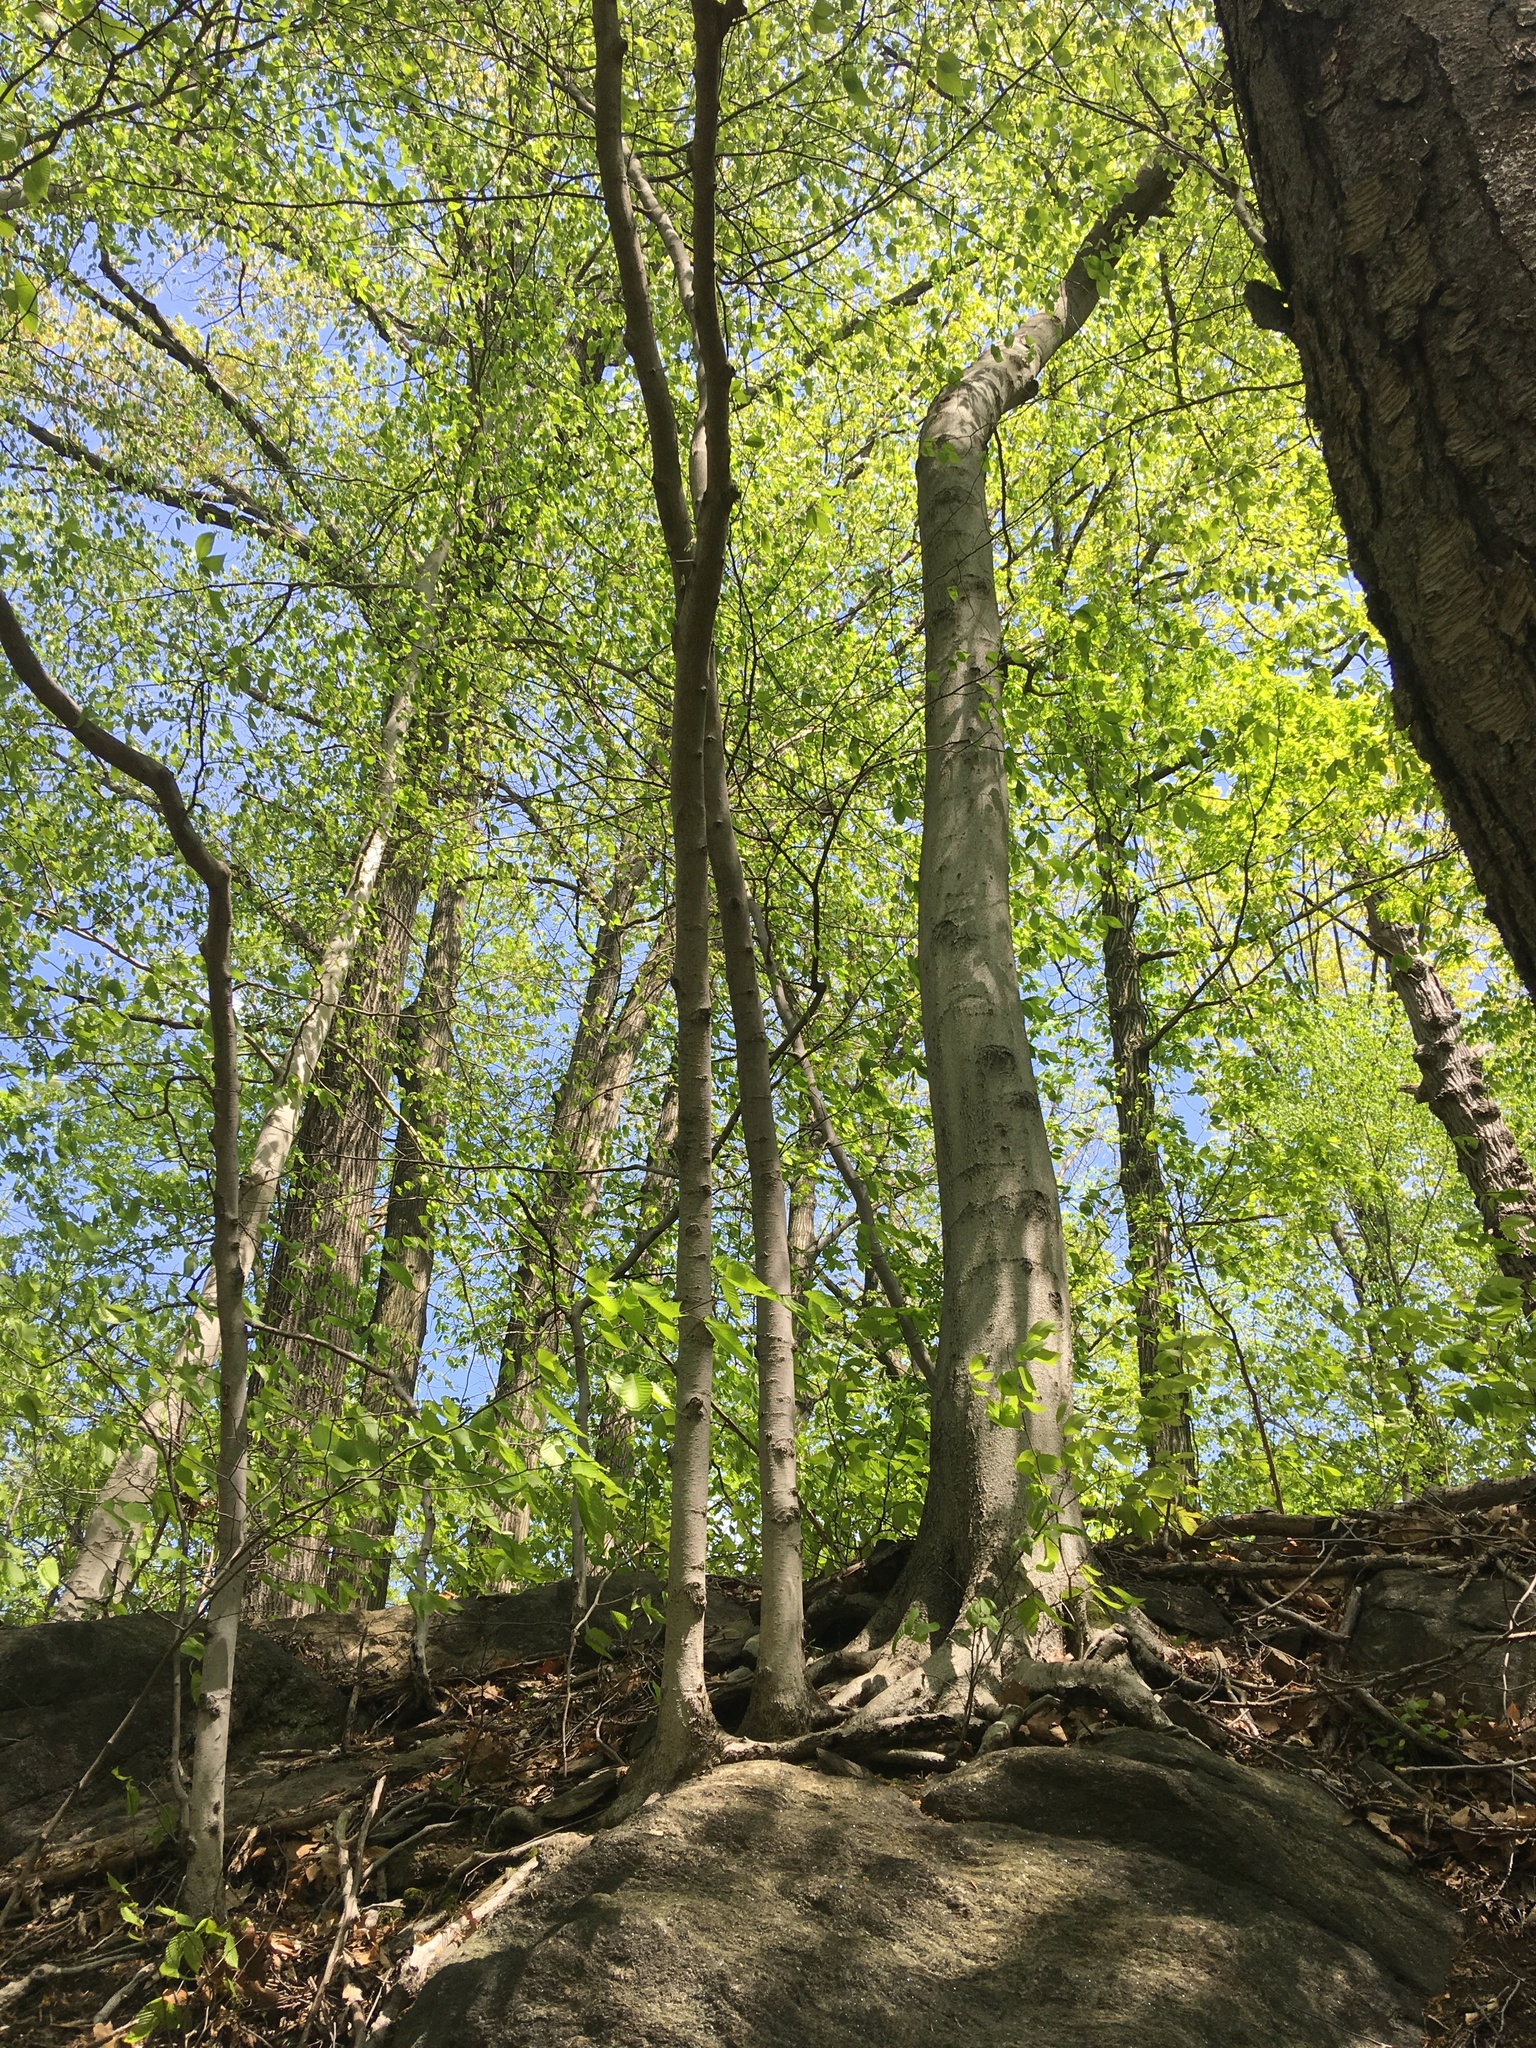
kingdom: Plantae
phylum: Tracheophyta
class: Magnoliopsida
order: Fagales
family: Fagaceae
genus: Fagus
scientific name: Fagus grandifolia
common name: American beech
